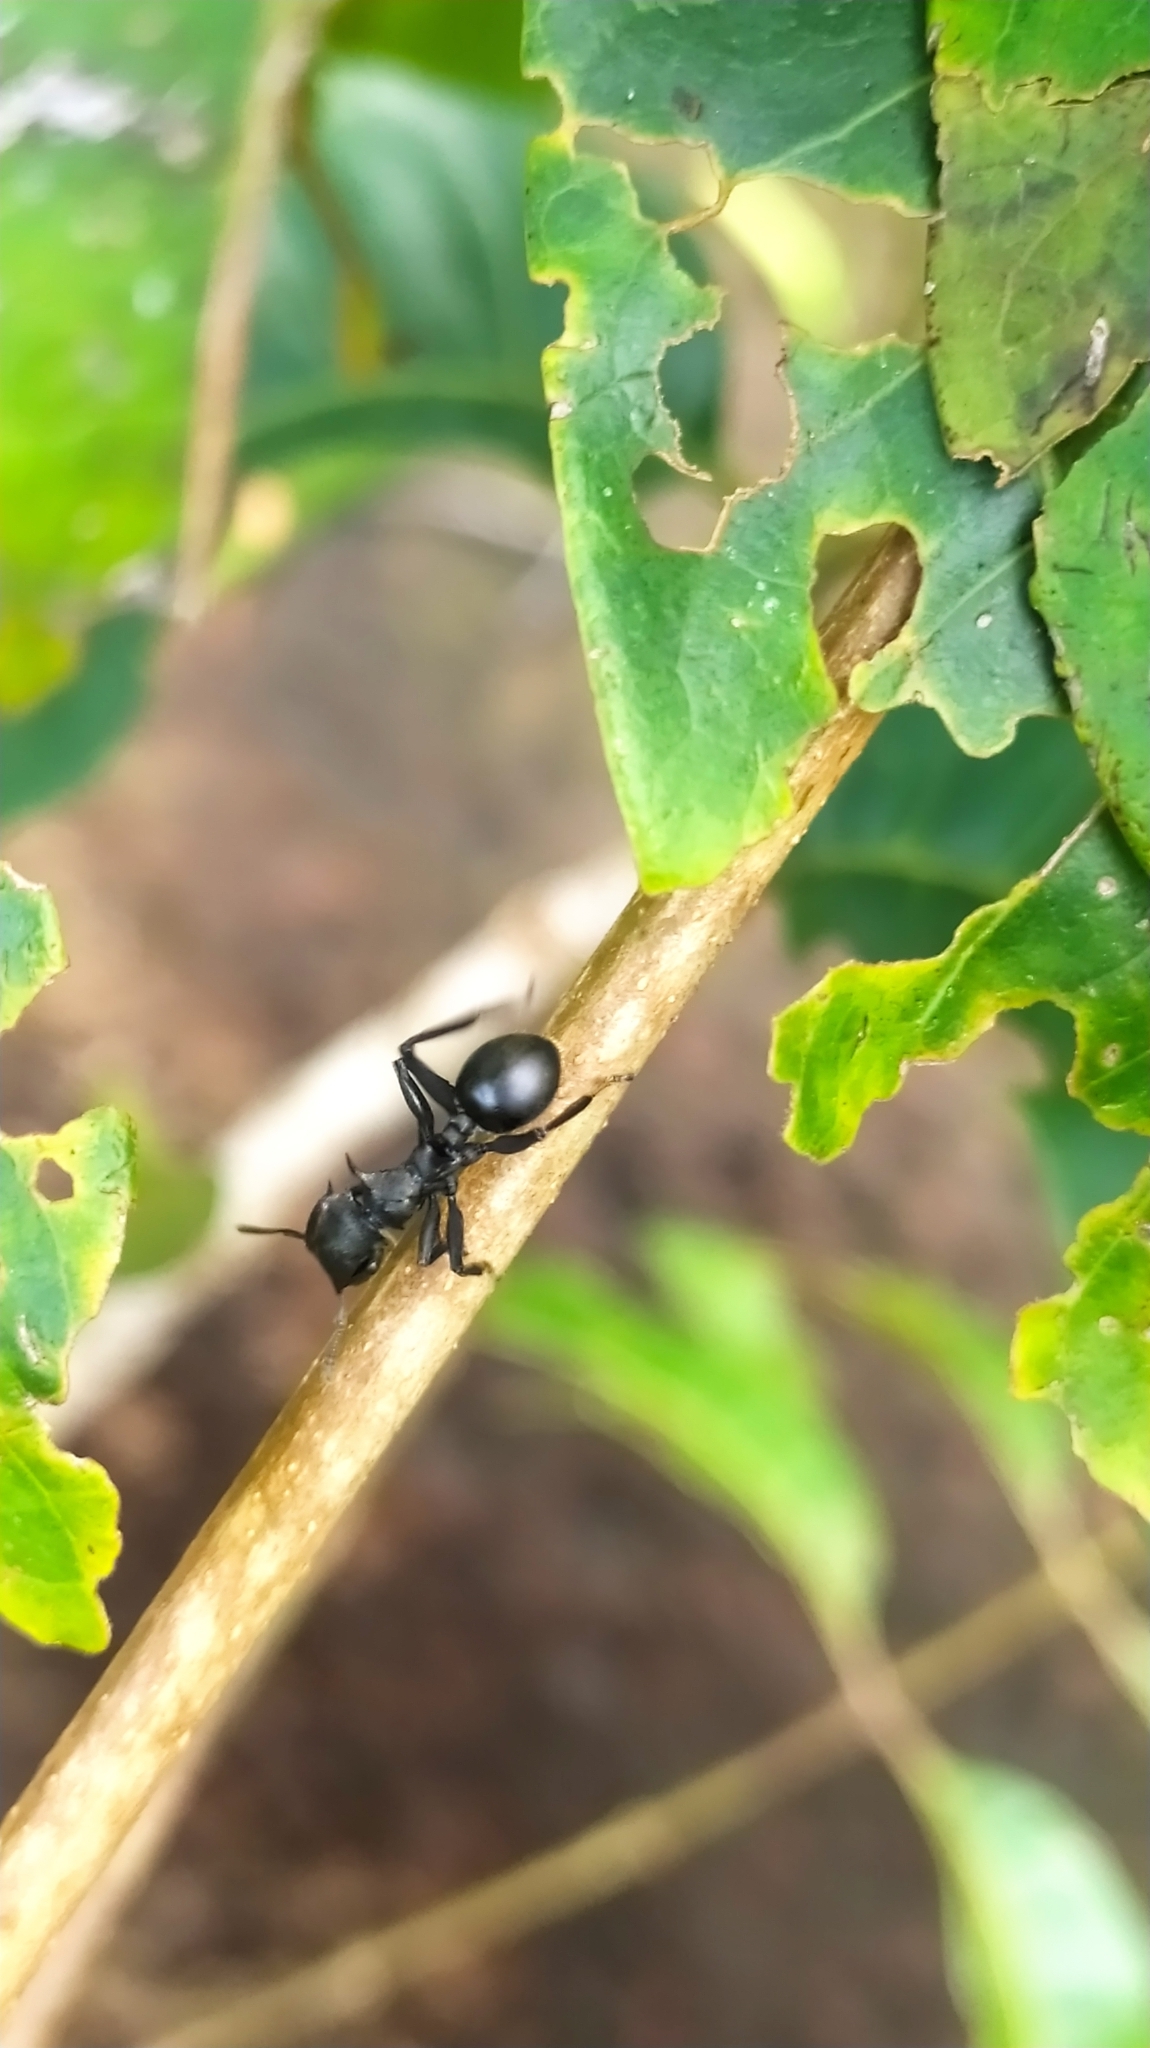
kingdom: Animalia
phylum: Arthropoda
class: Insecta
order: Hymenoptera
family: Formicidae
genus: Cephalotes
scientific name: Cephalotes
